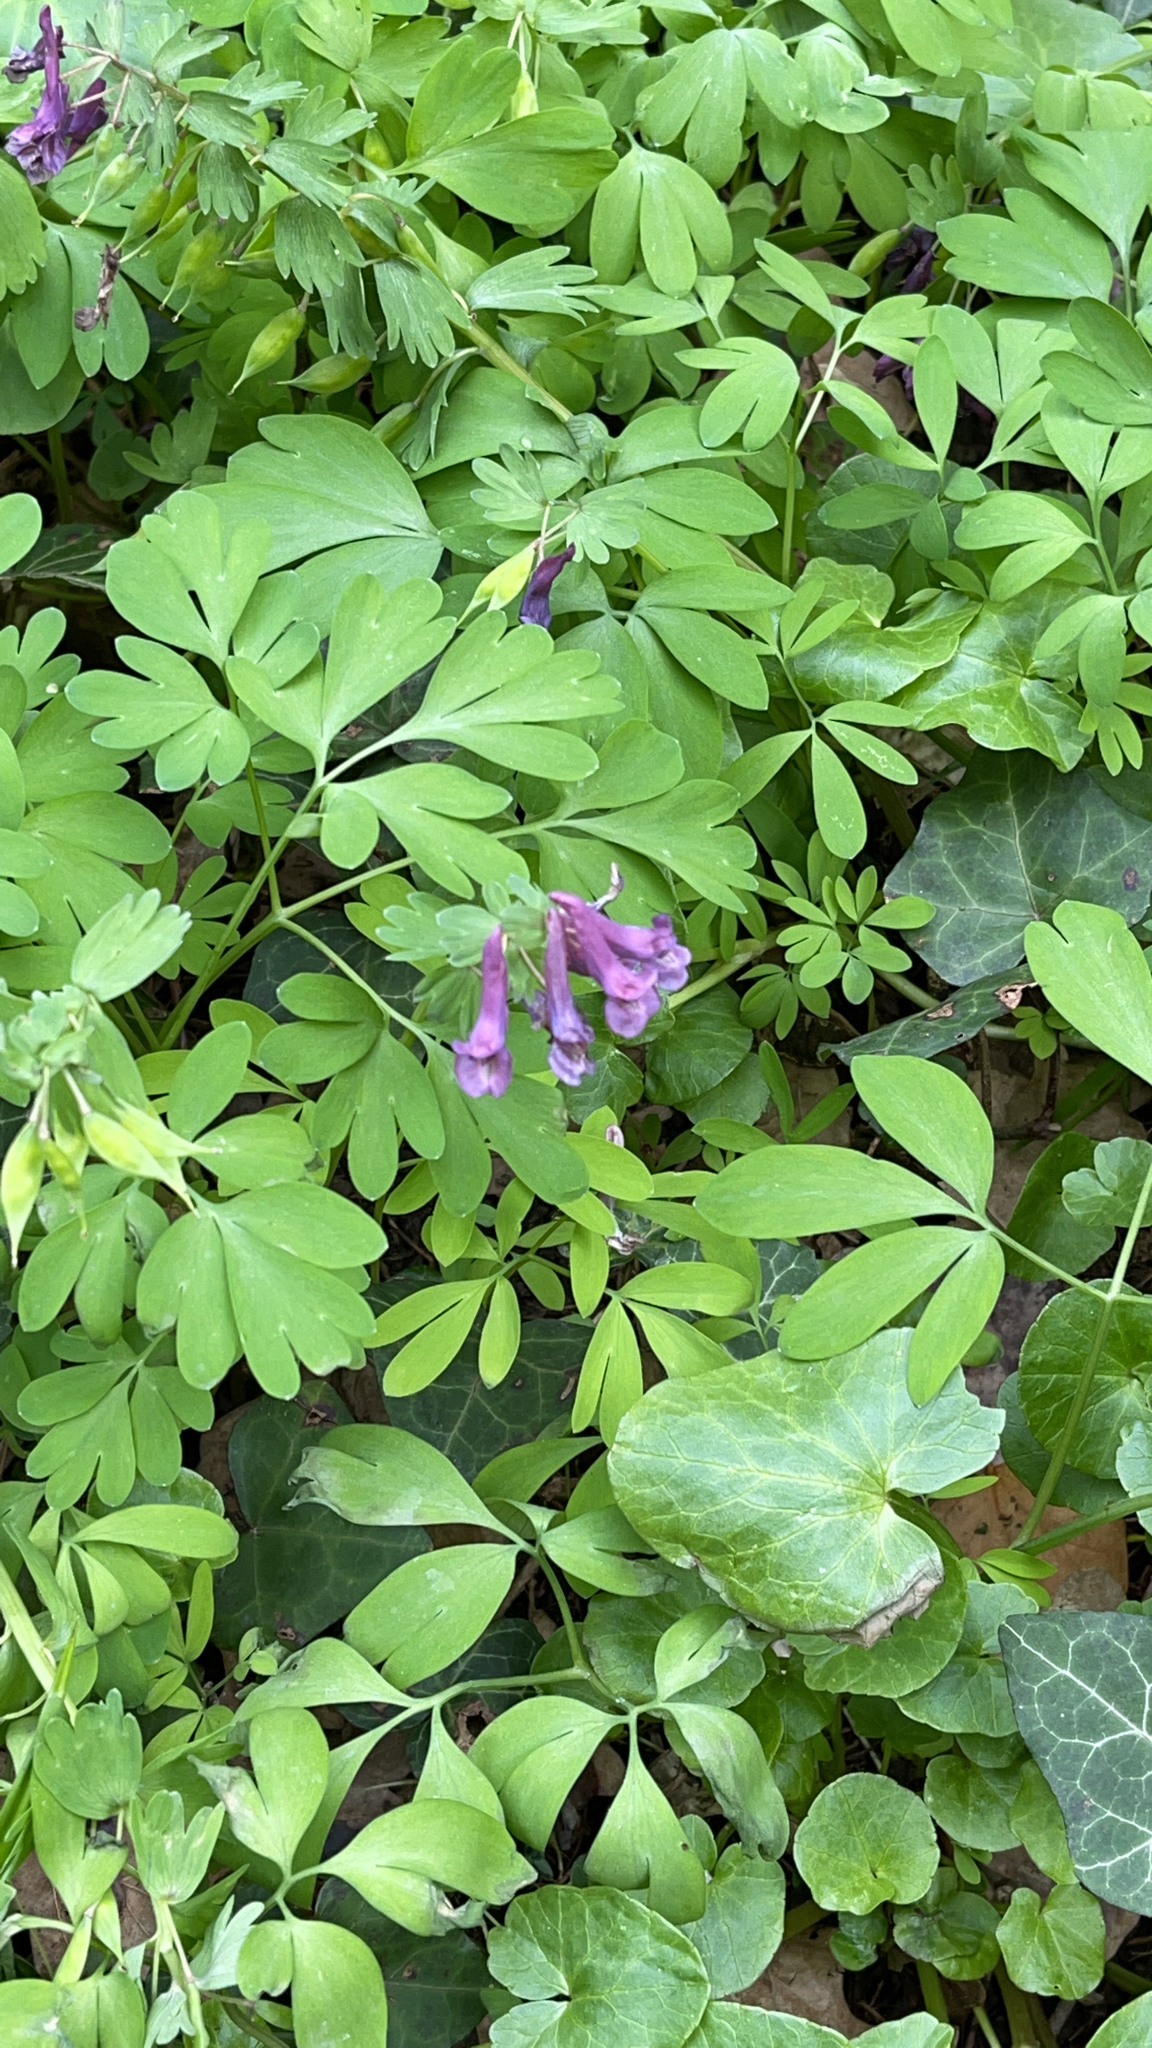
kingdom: Plantae
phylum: Tracheophyta
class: Magnoliopsida
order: Ranunculales
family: Papaveraceae
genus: Corydalis
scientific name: Corydalis solida
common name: Bird-in-a-bush
